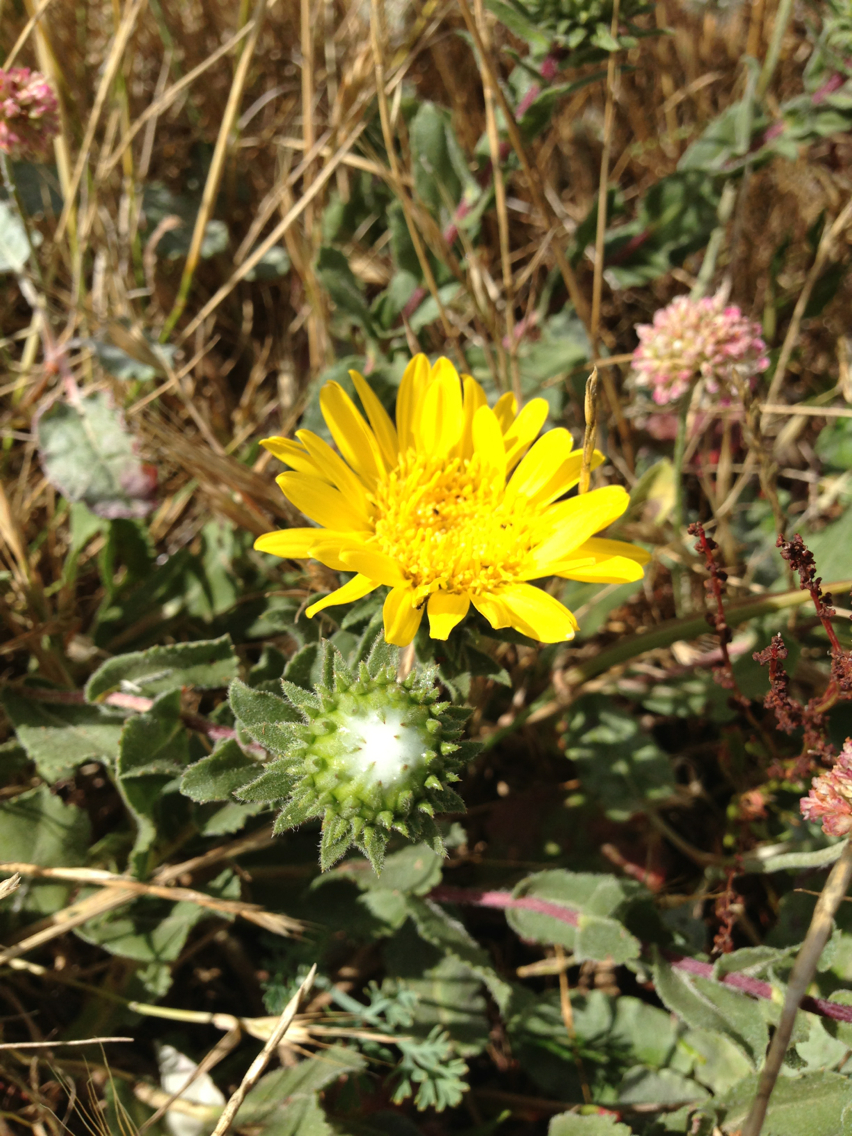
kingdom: Plantae
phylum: Tracheophyta
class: Magnoliopsida
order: Asterales
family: Asteraceae
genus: Grindelia
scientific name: Grindelia hirsutula
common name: Hairy gumweed
